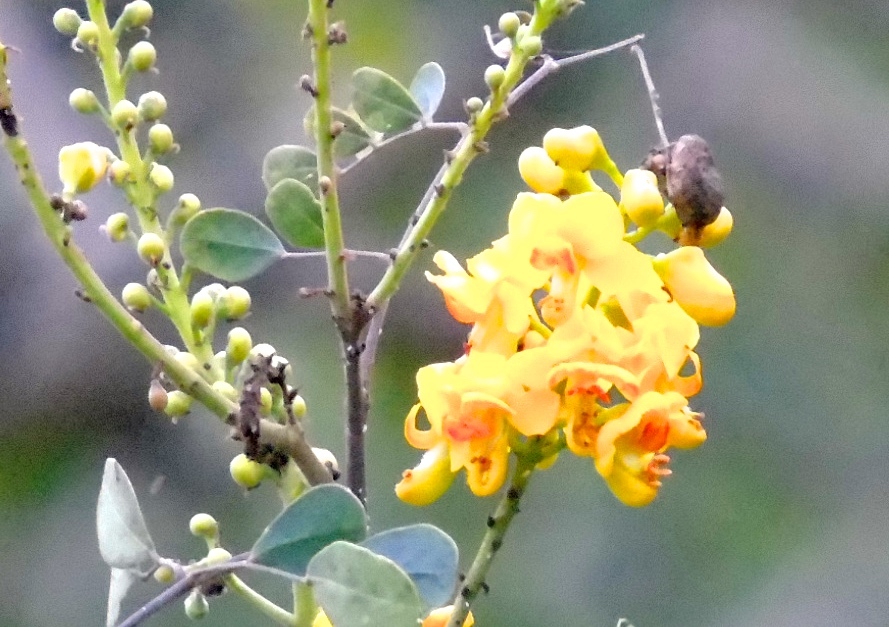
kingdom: Plantae
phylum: Tracheophyta
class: Magnoliopsida
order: Fabales
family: Fabaceae
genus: Tara
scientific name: Tara cacalaco
